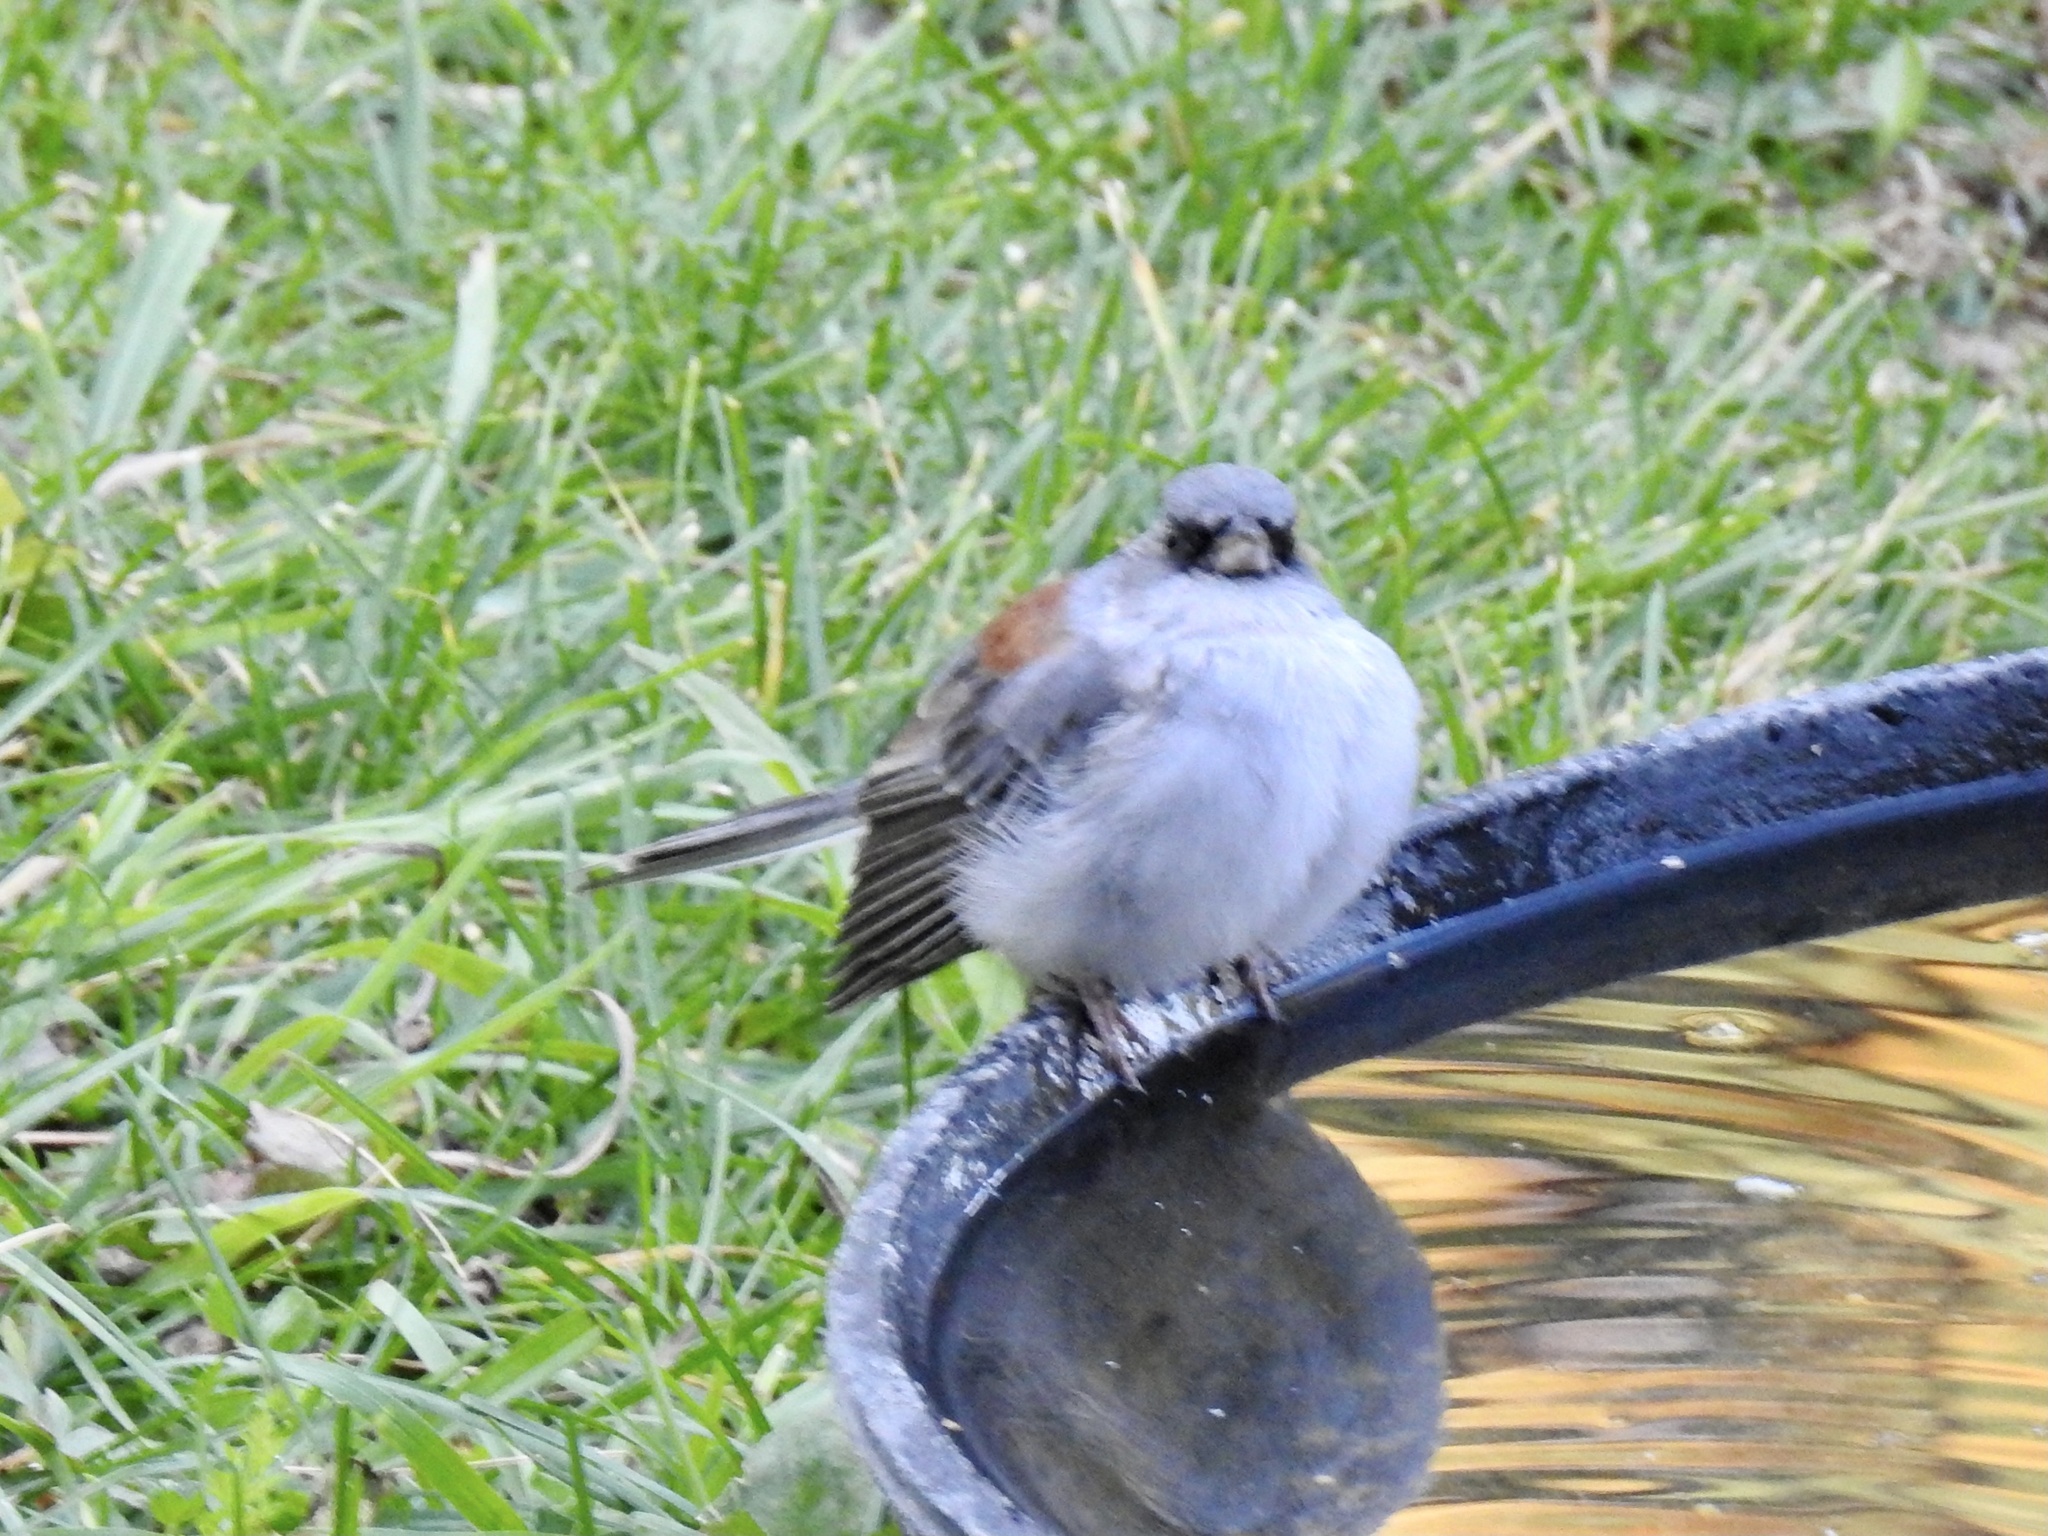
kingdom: Animalia
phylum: Chordata
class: Aves
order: Passeriformes
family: Passerellidae
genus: Junco
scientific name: Junco hyemalis
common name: Dark-eyed junco
